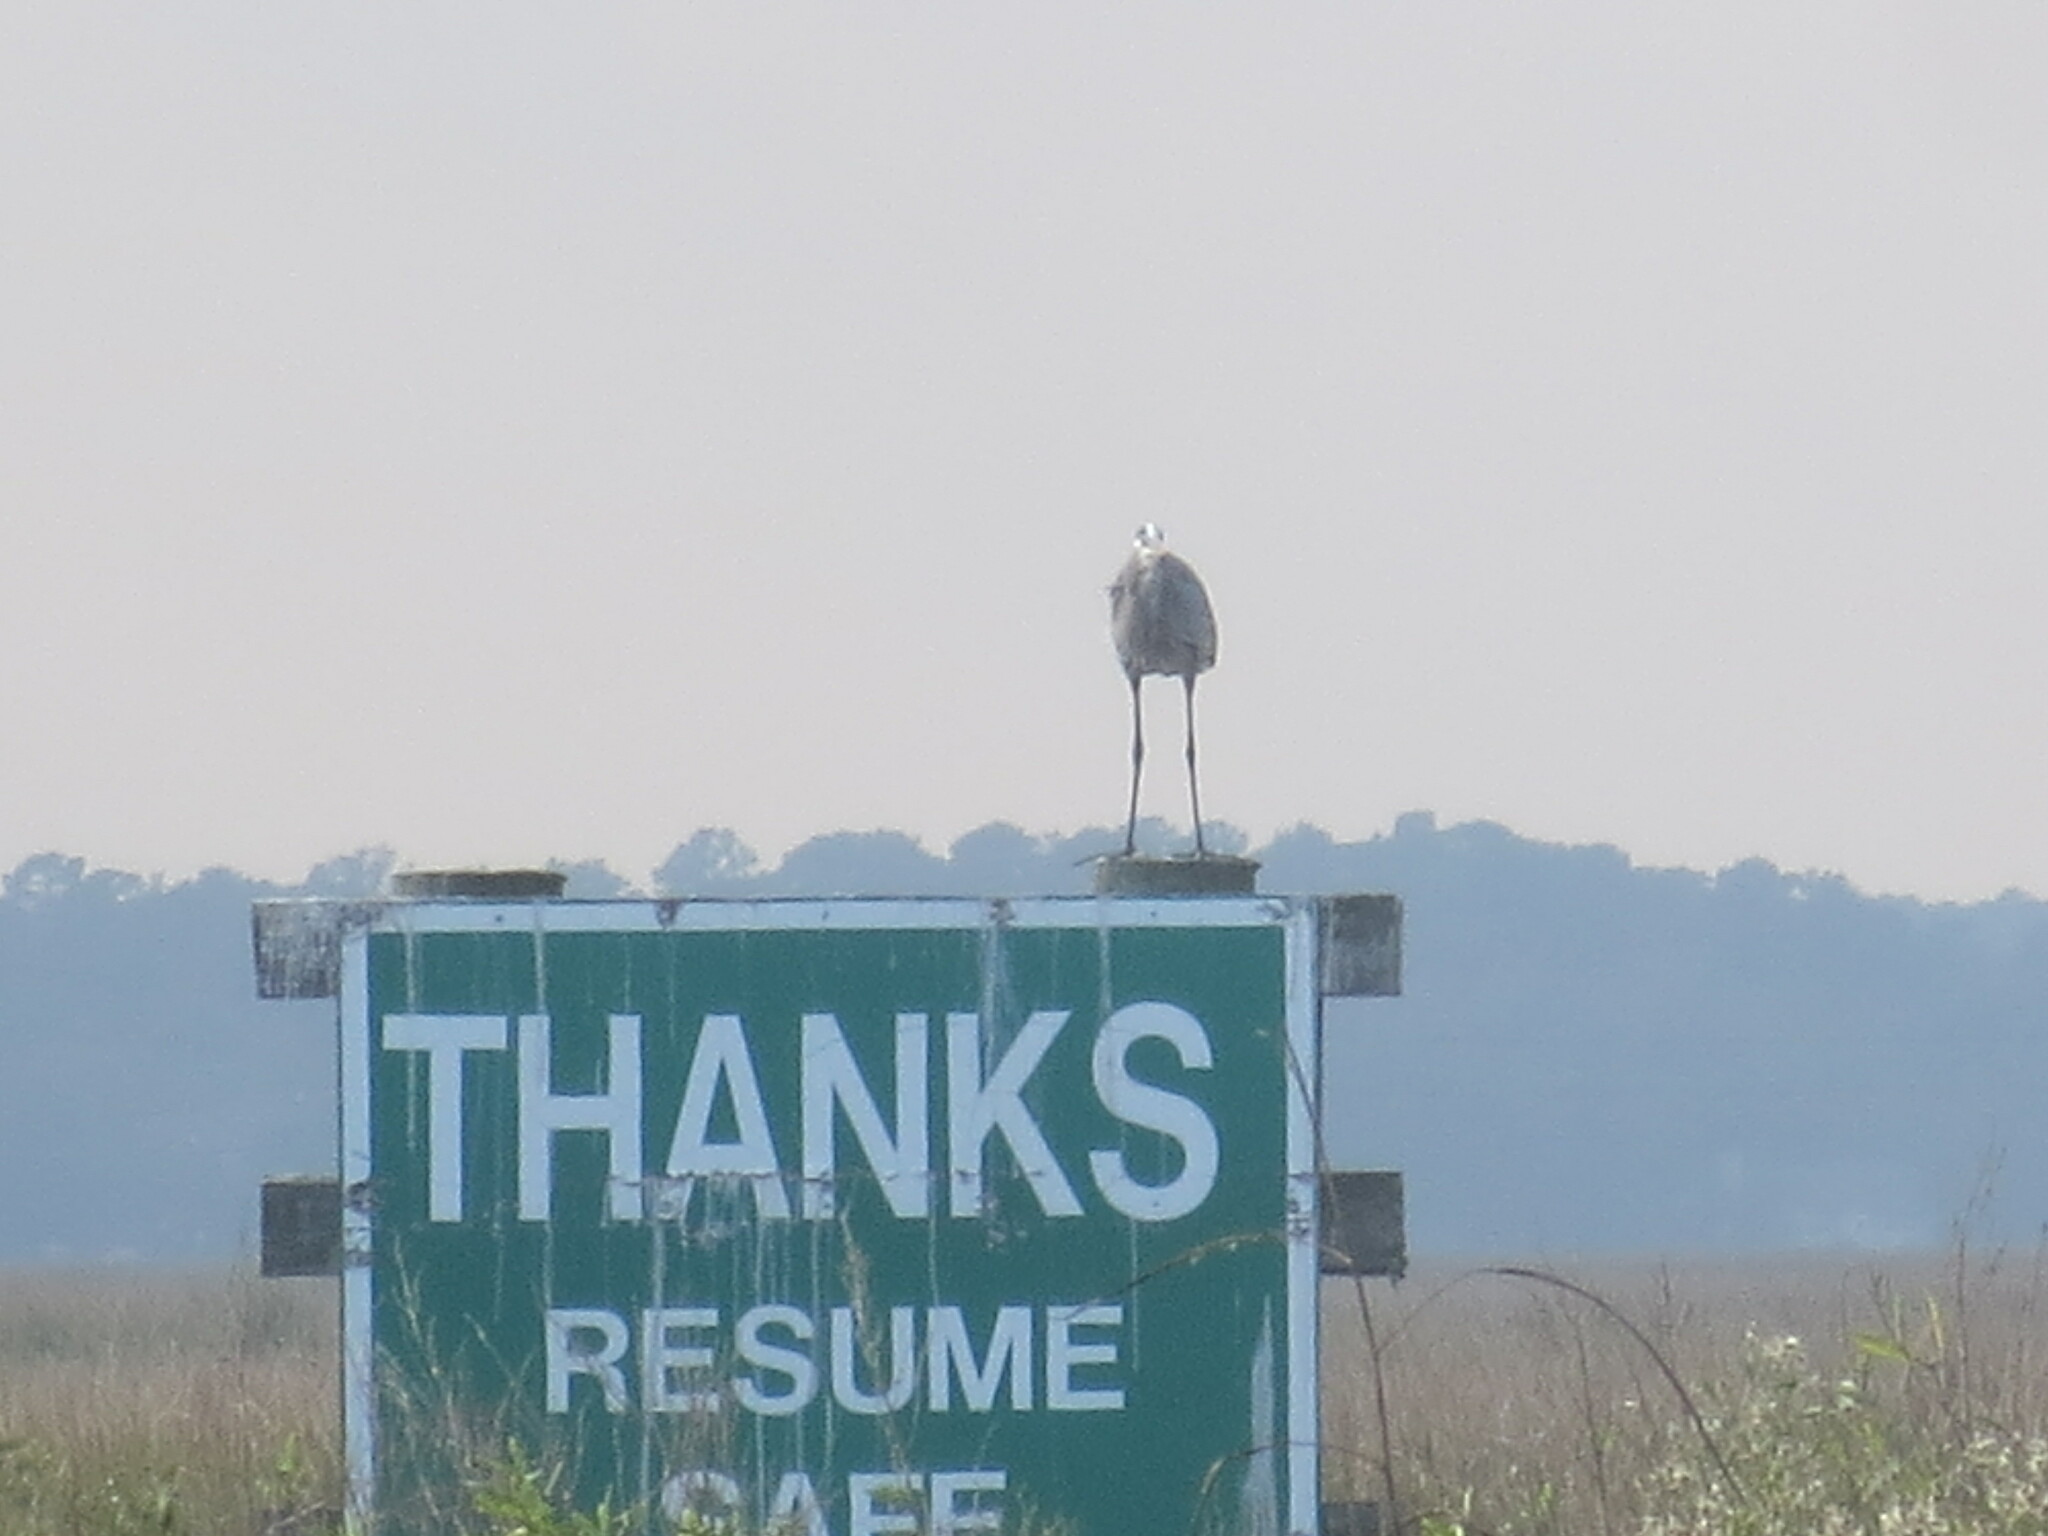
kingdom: Animalia
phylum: Chordata
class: Aves
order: Pelecaniformes
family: Ardeidae
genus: Ardea
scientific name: Ardea herodias
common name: Great blue heron
